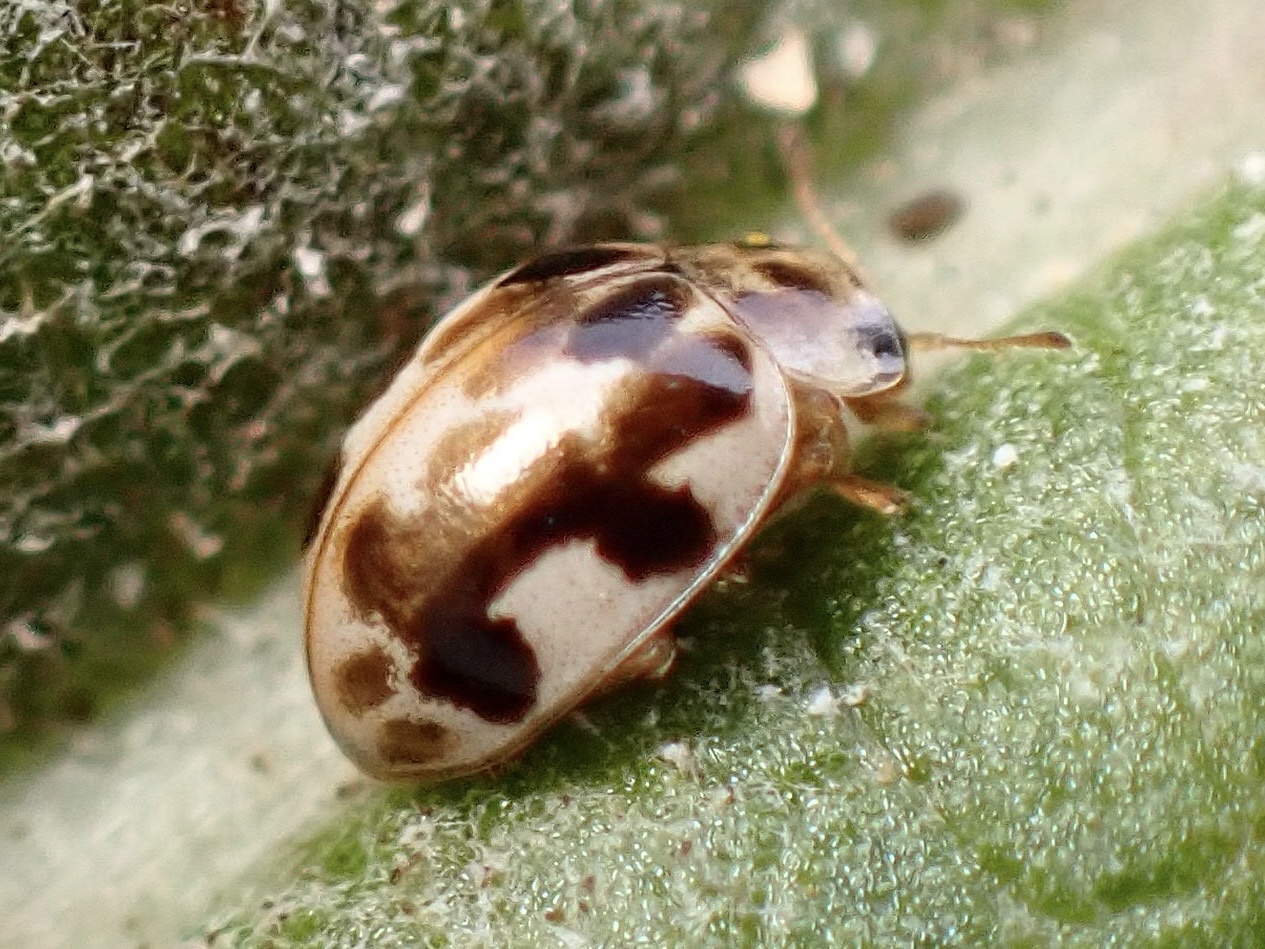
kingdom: Animalia
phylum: Arthropoda
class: Insecta
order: Coleoptera
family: Coccinellidae
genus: Psyllobora
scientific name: Psyllobora vigintimaculata
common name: Ladybird beetle
